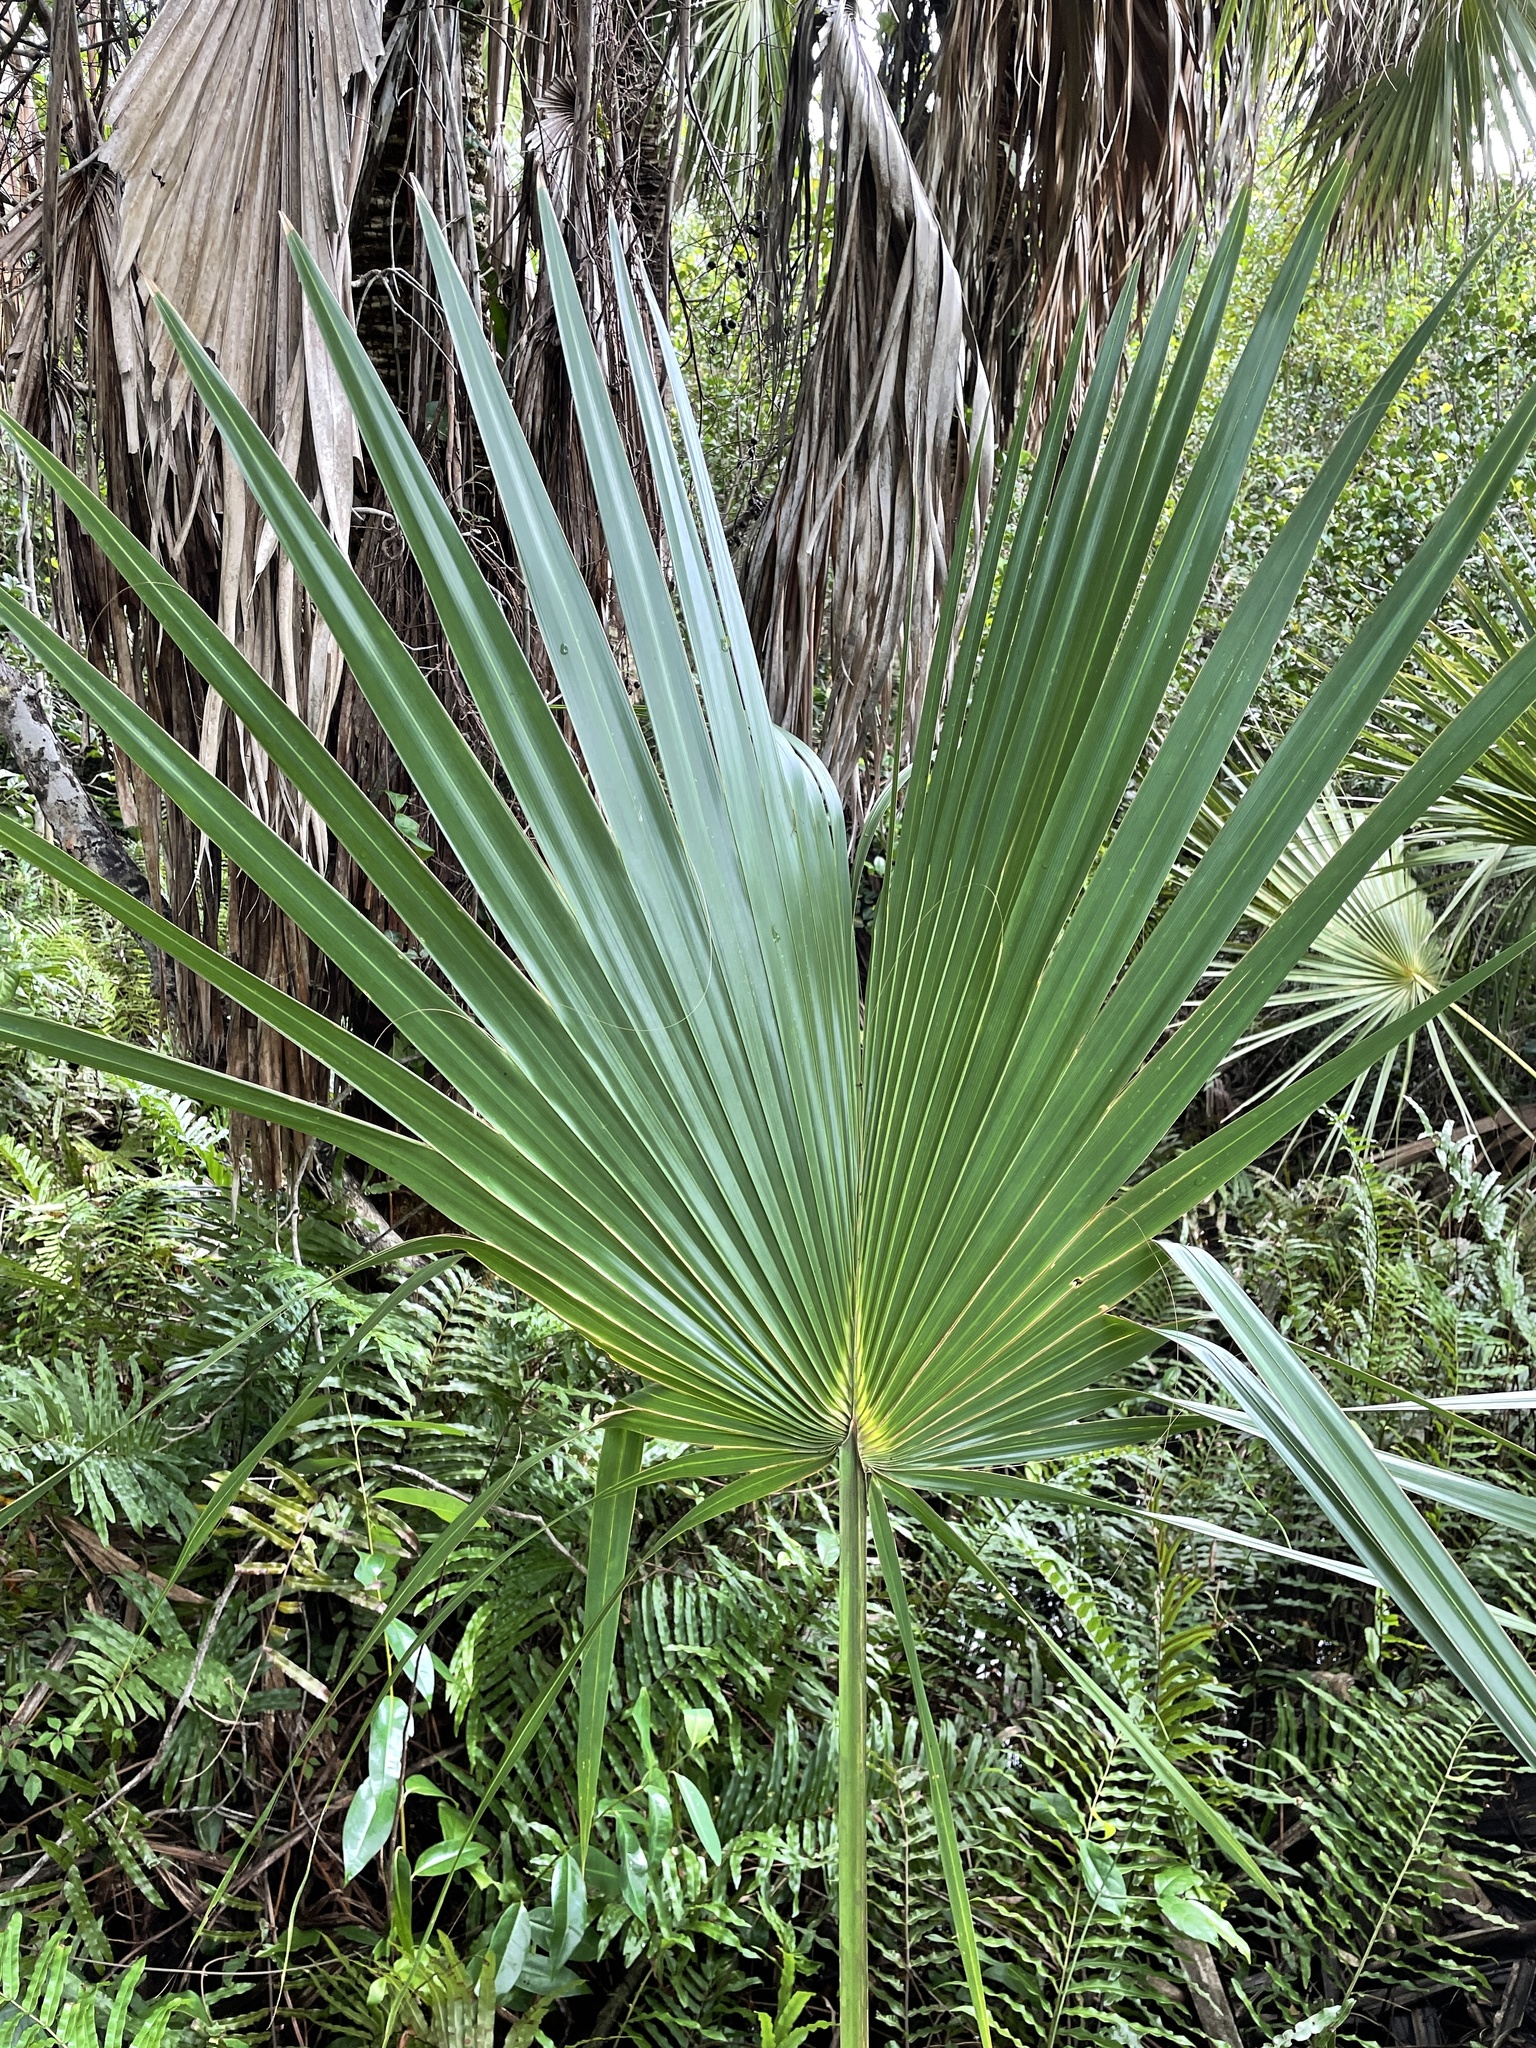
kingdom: Plantae
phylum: Tracheophyta
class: Liliopsida
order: Arecales
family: Arecaceae
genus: Sabal
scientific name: Sabal palmetto
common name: Blue palmetto
